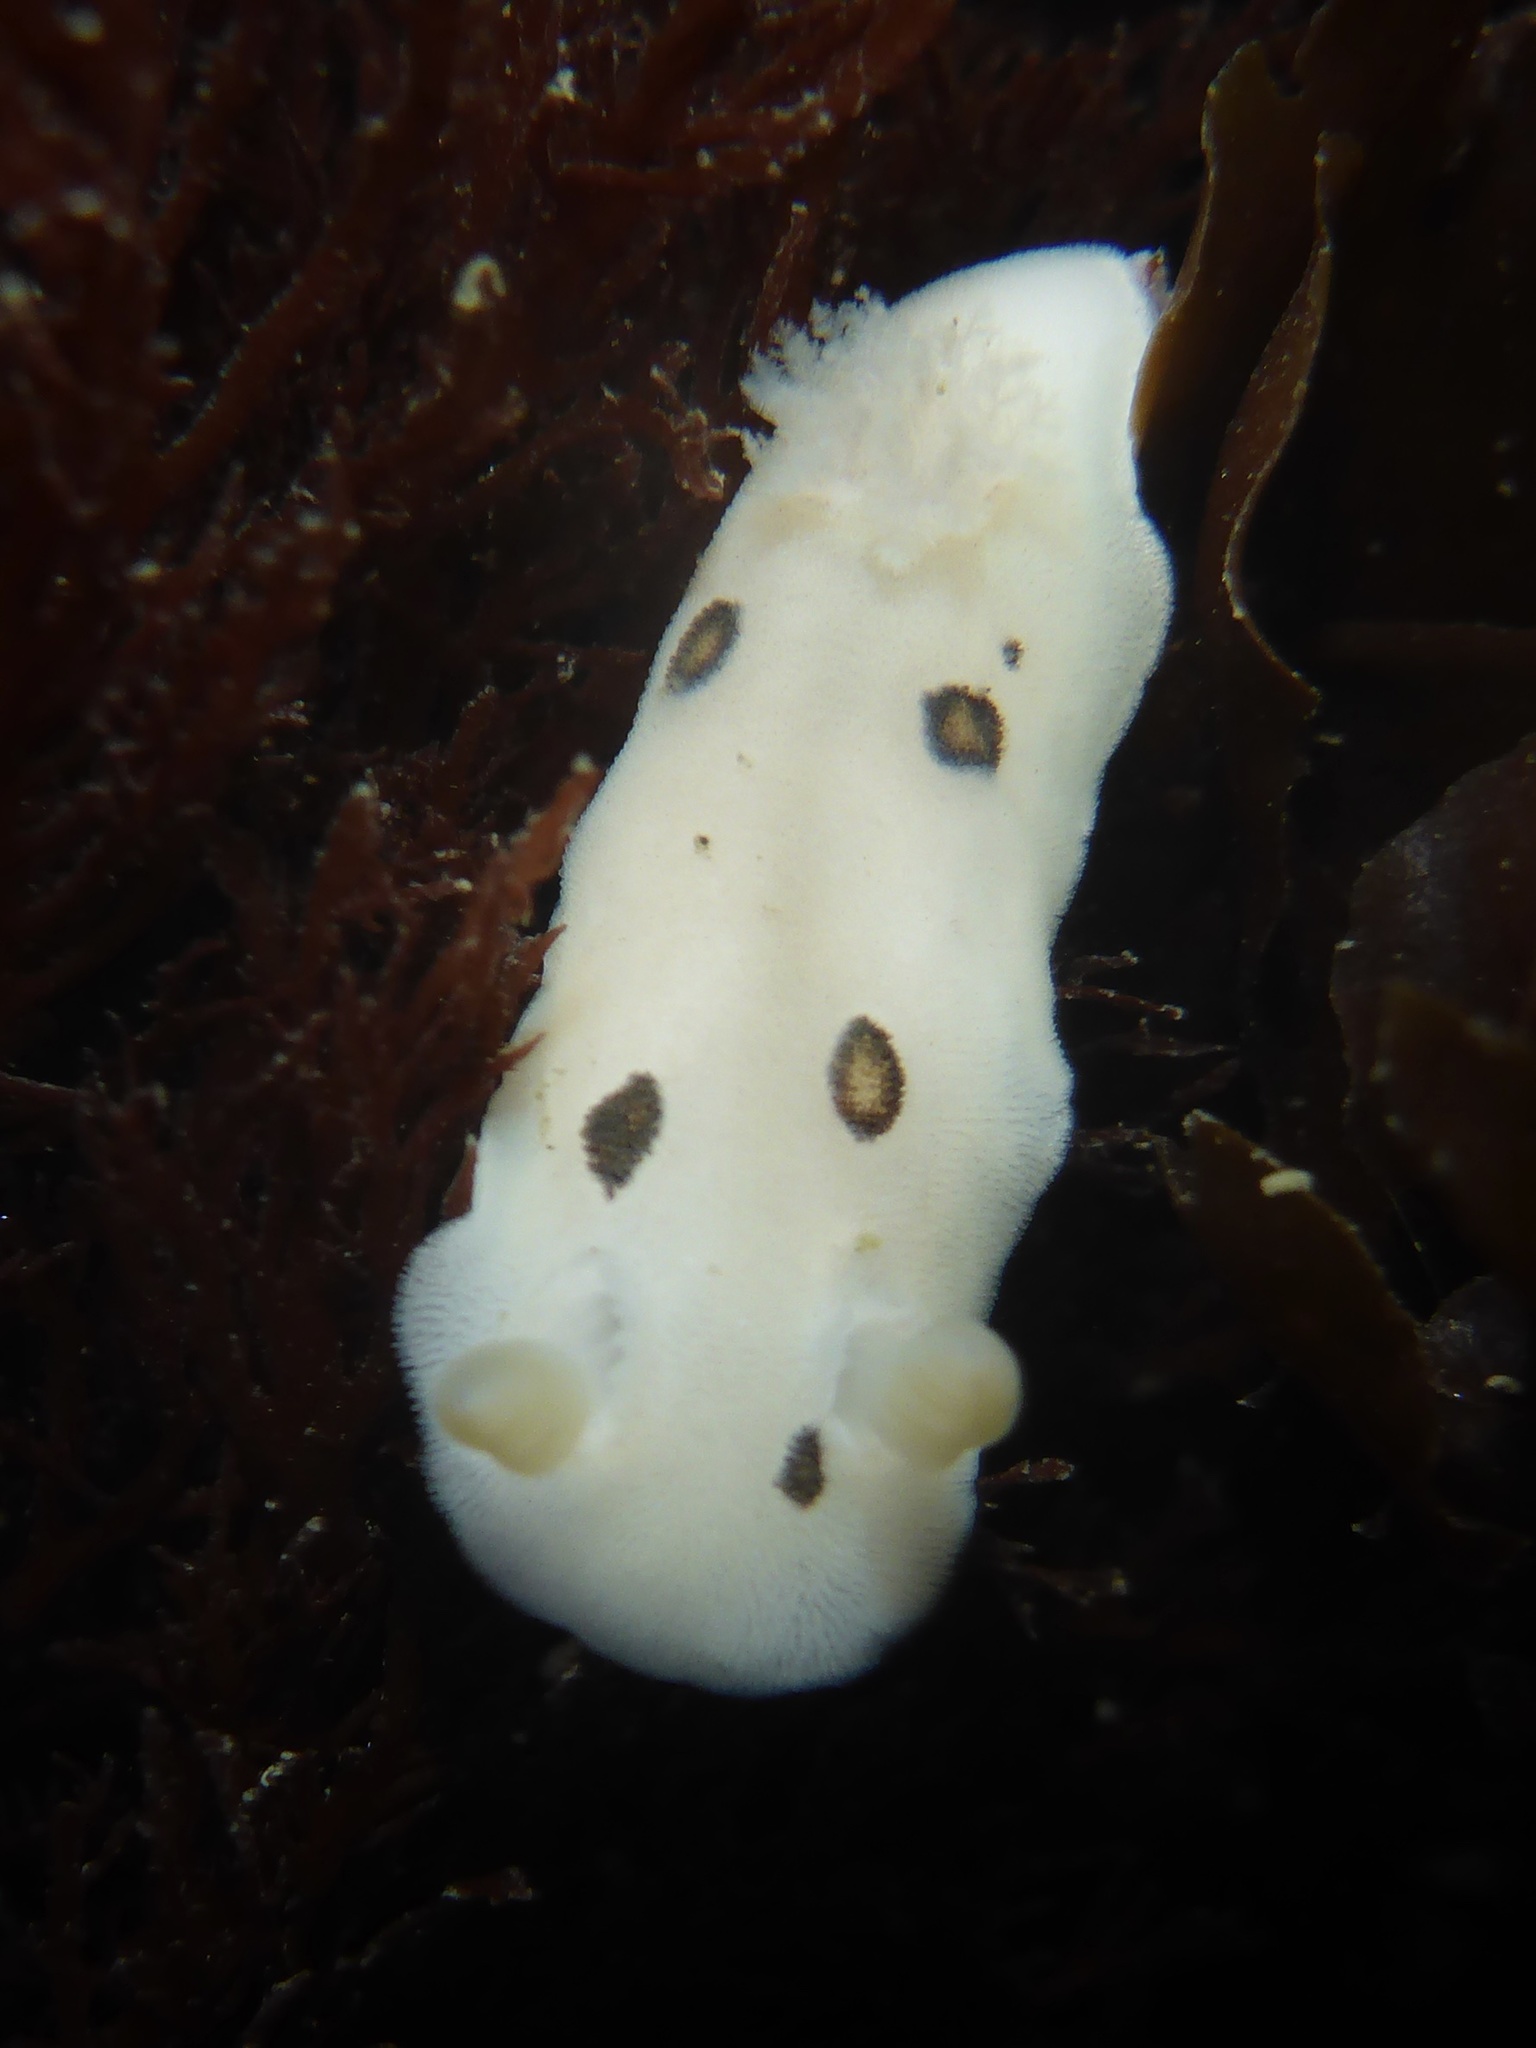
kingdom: Animalia
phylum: Mollusca
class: Gastropoda
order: Nudibranchia
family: Discodorididae
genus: Diaulula
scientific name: Diaulula sandiegensis
